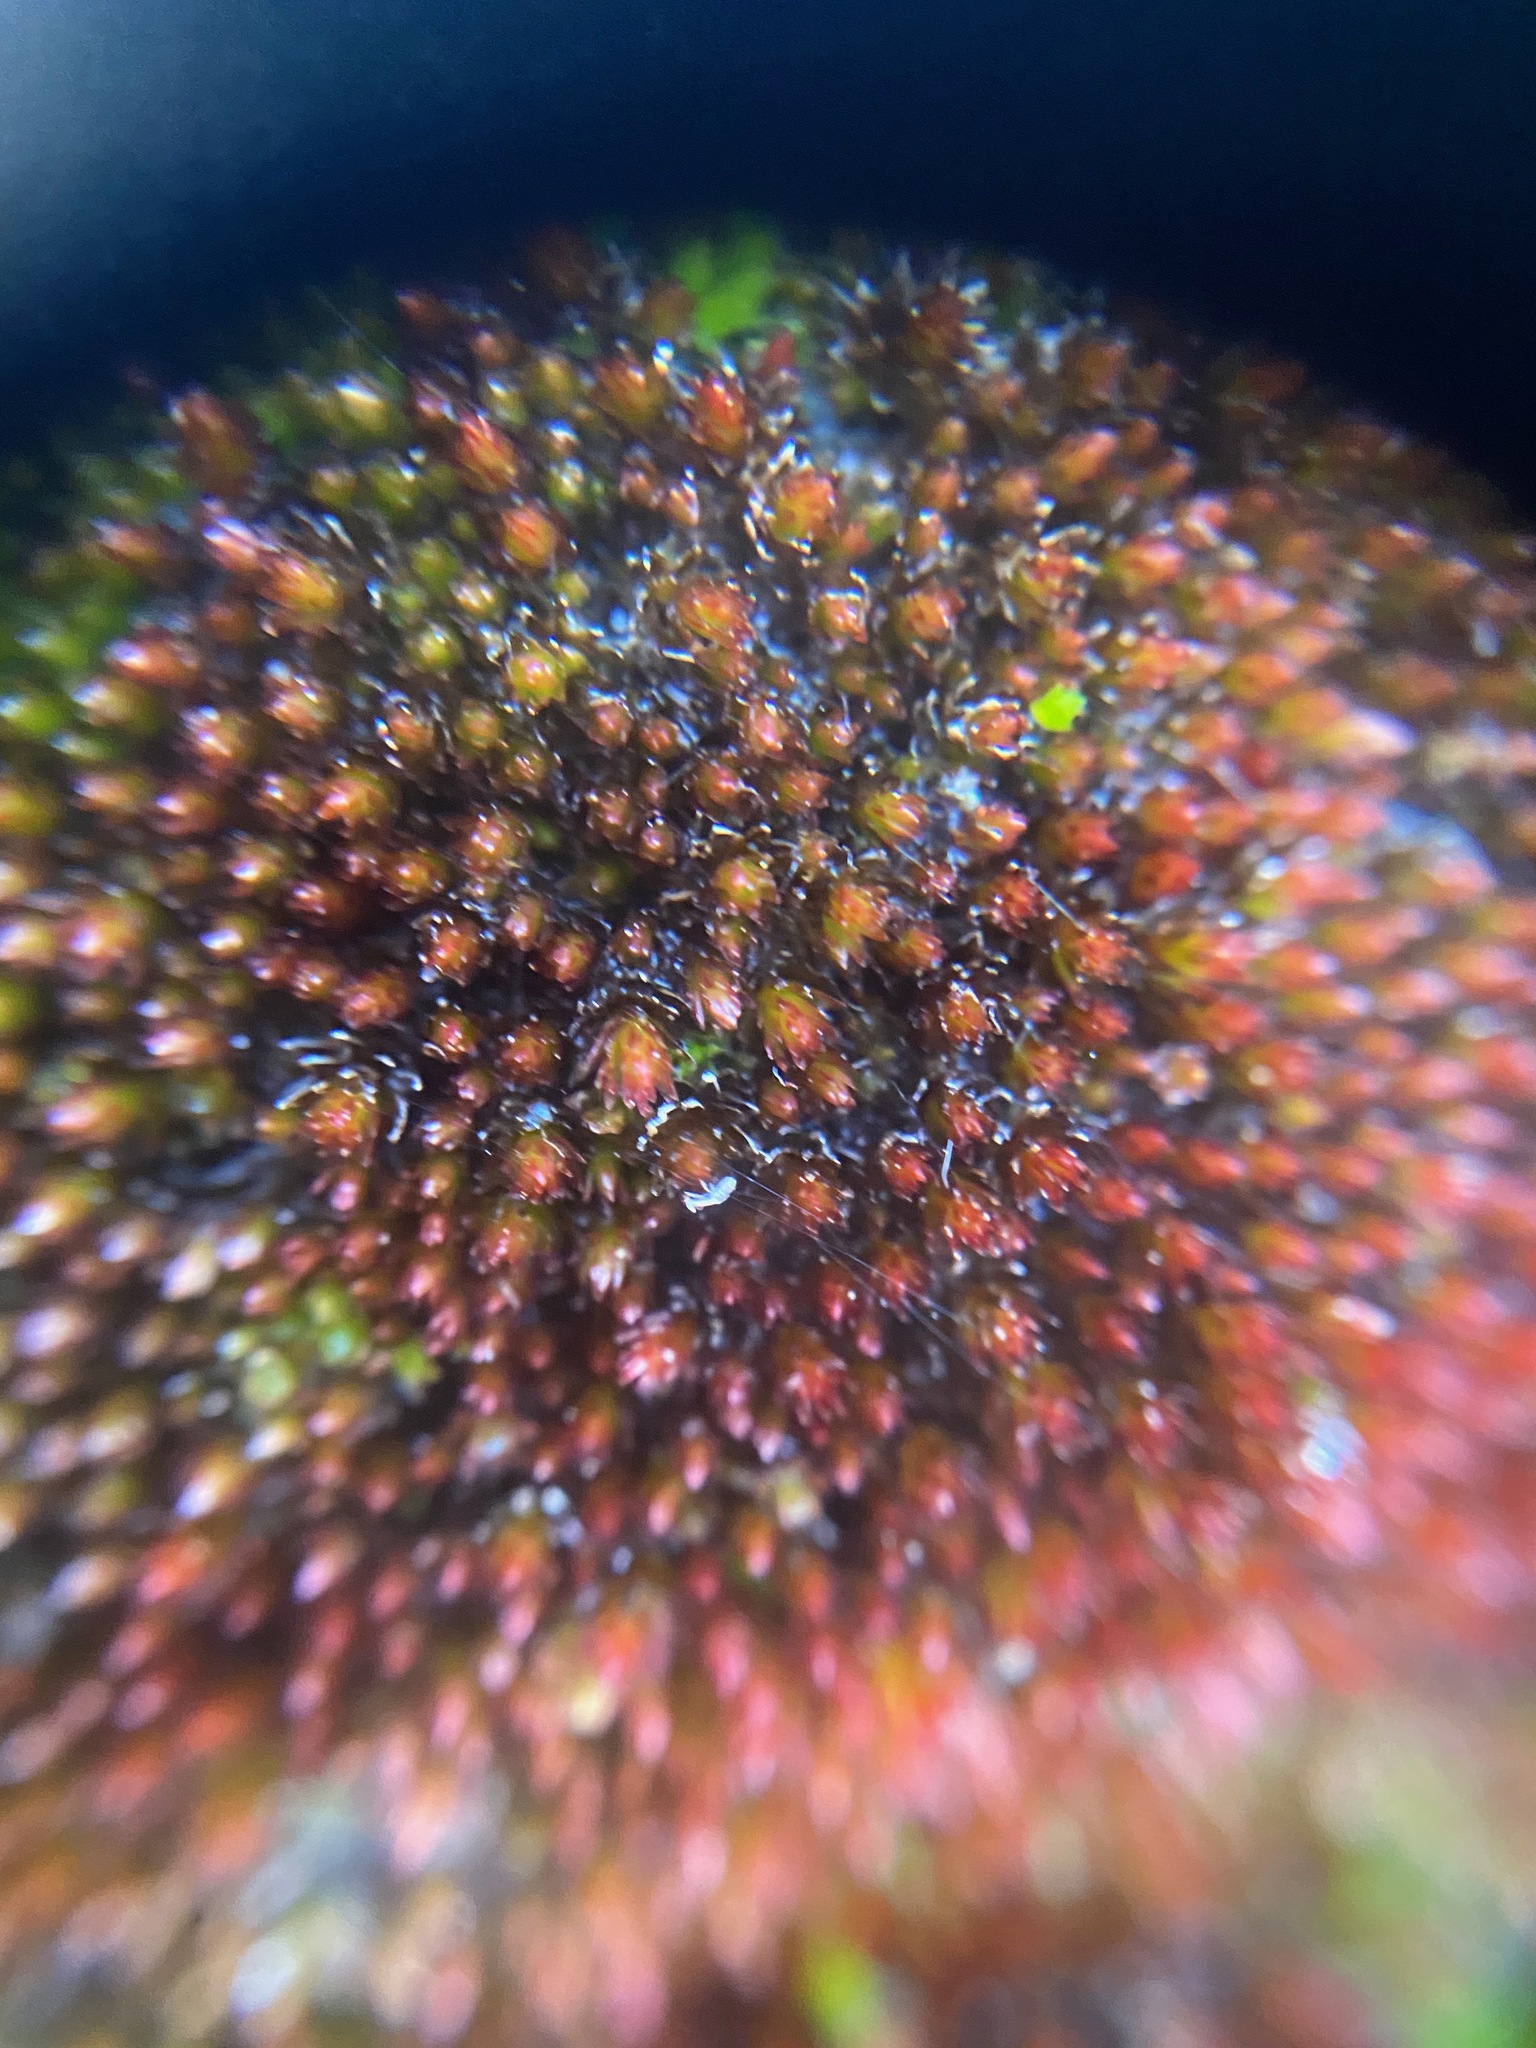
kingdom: Plantae
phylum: Bryophyta
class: Bryopsida
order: Bryales
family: Bryaceae
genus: Imbribryum
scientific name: Imbribryum miniatum
